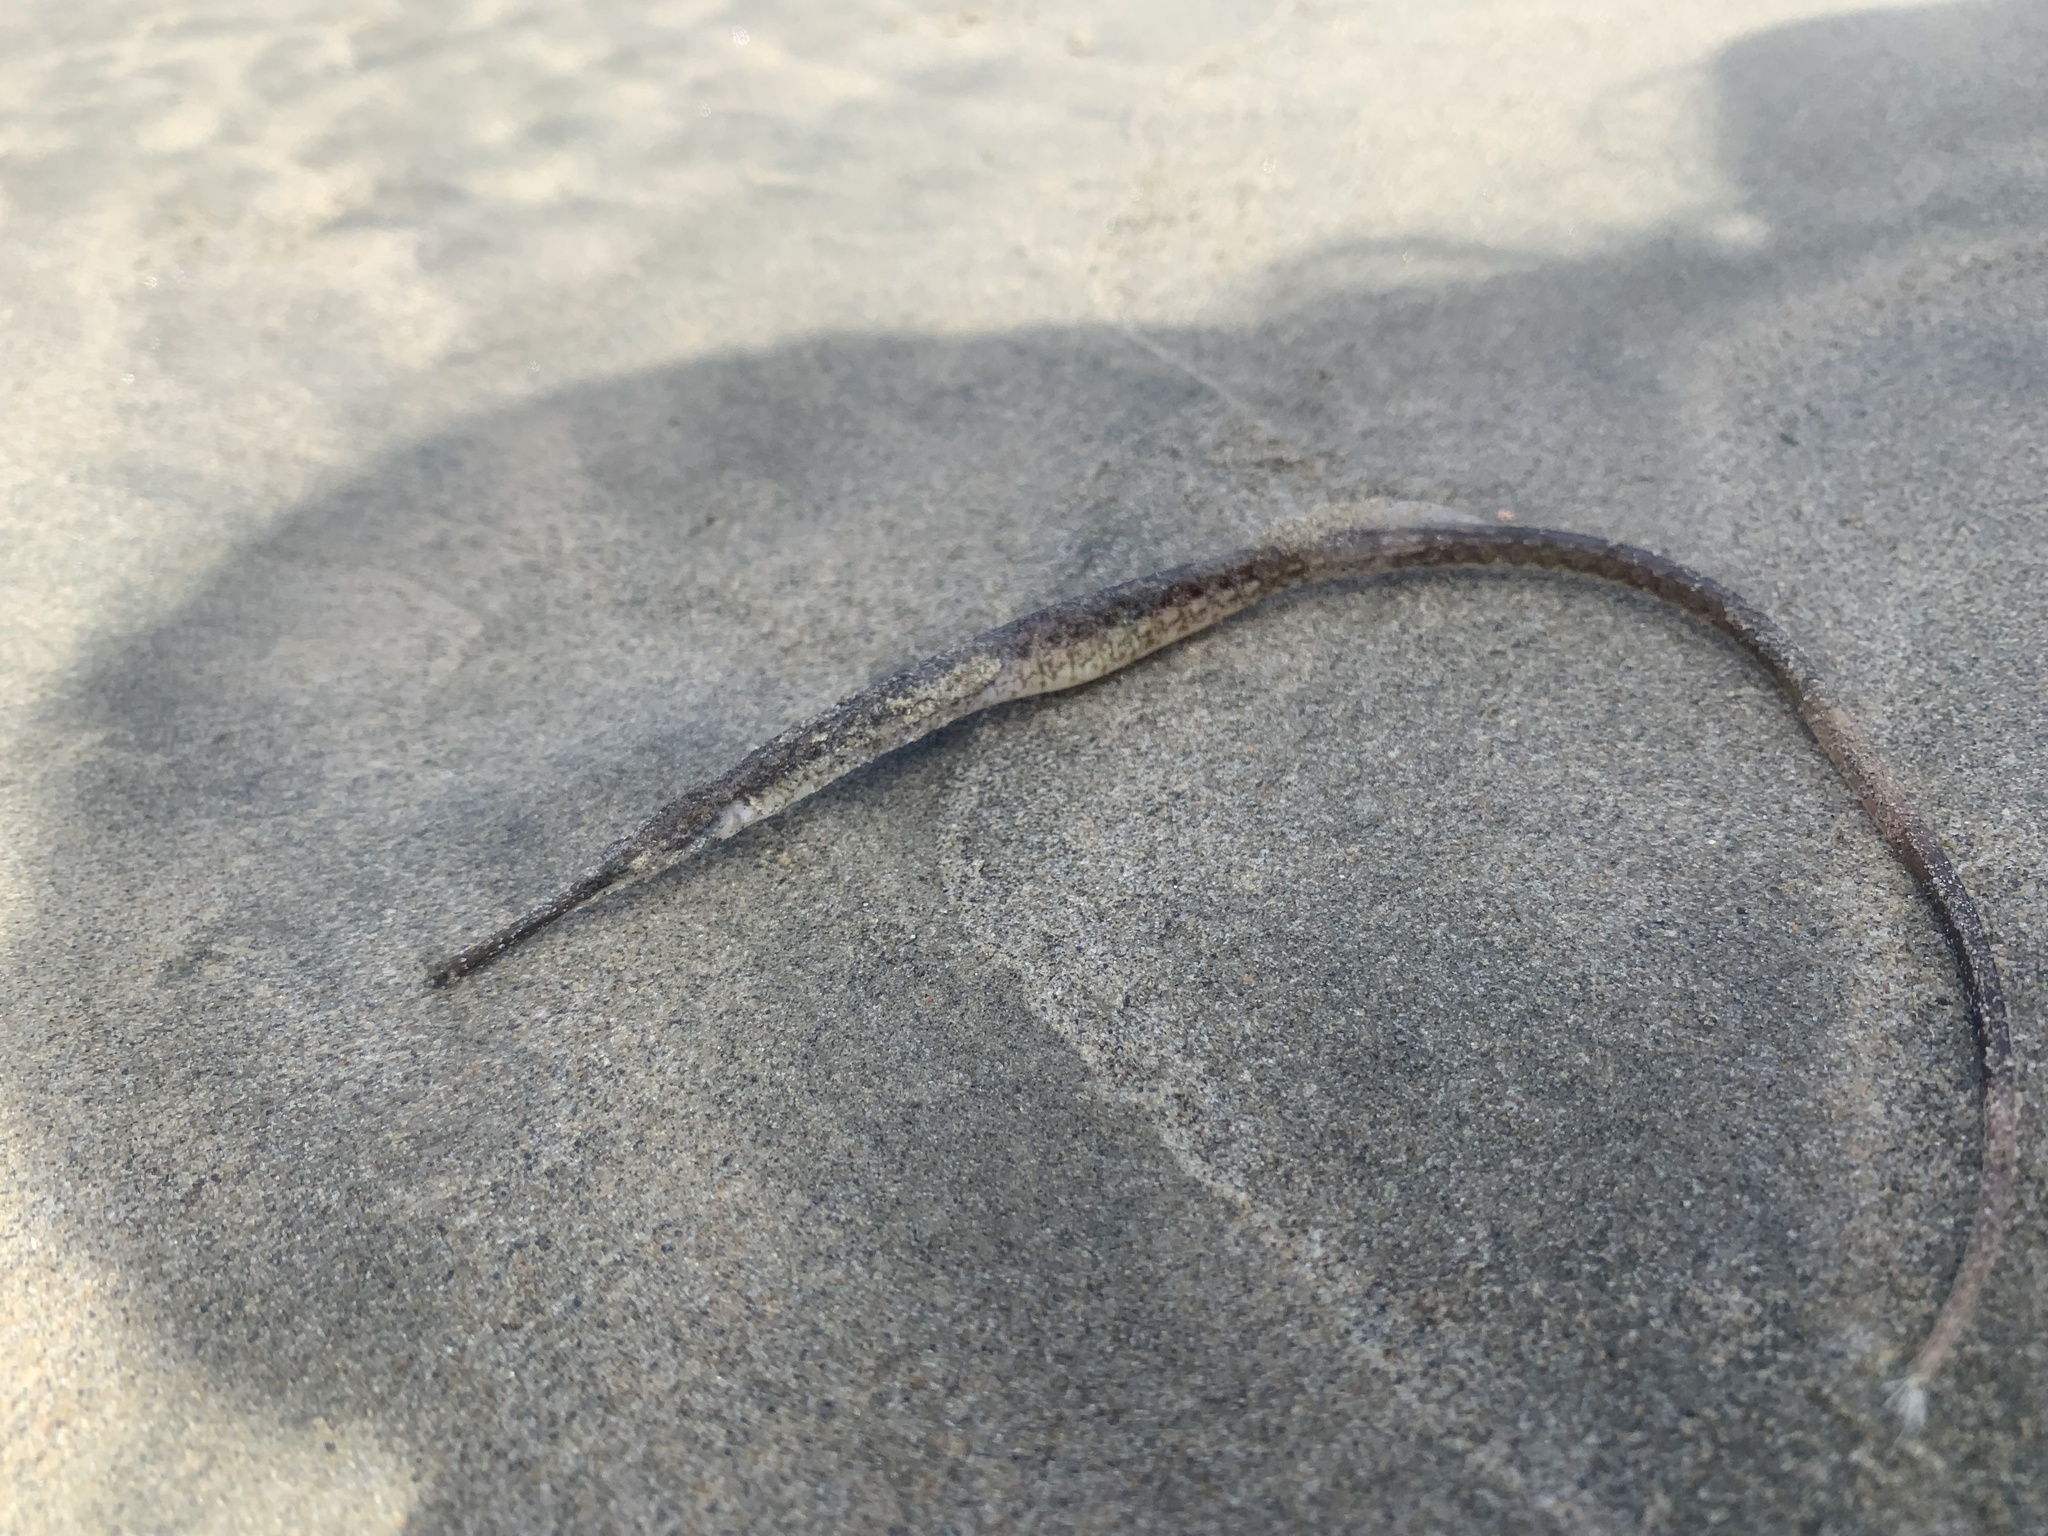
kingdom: Animalia
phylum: Chordata
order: Syngnathiformes
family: Syngnathidae
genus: Syngnathus
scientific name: Syngnathus californiensis
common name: Great pipefish
